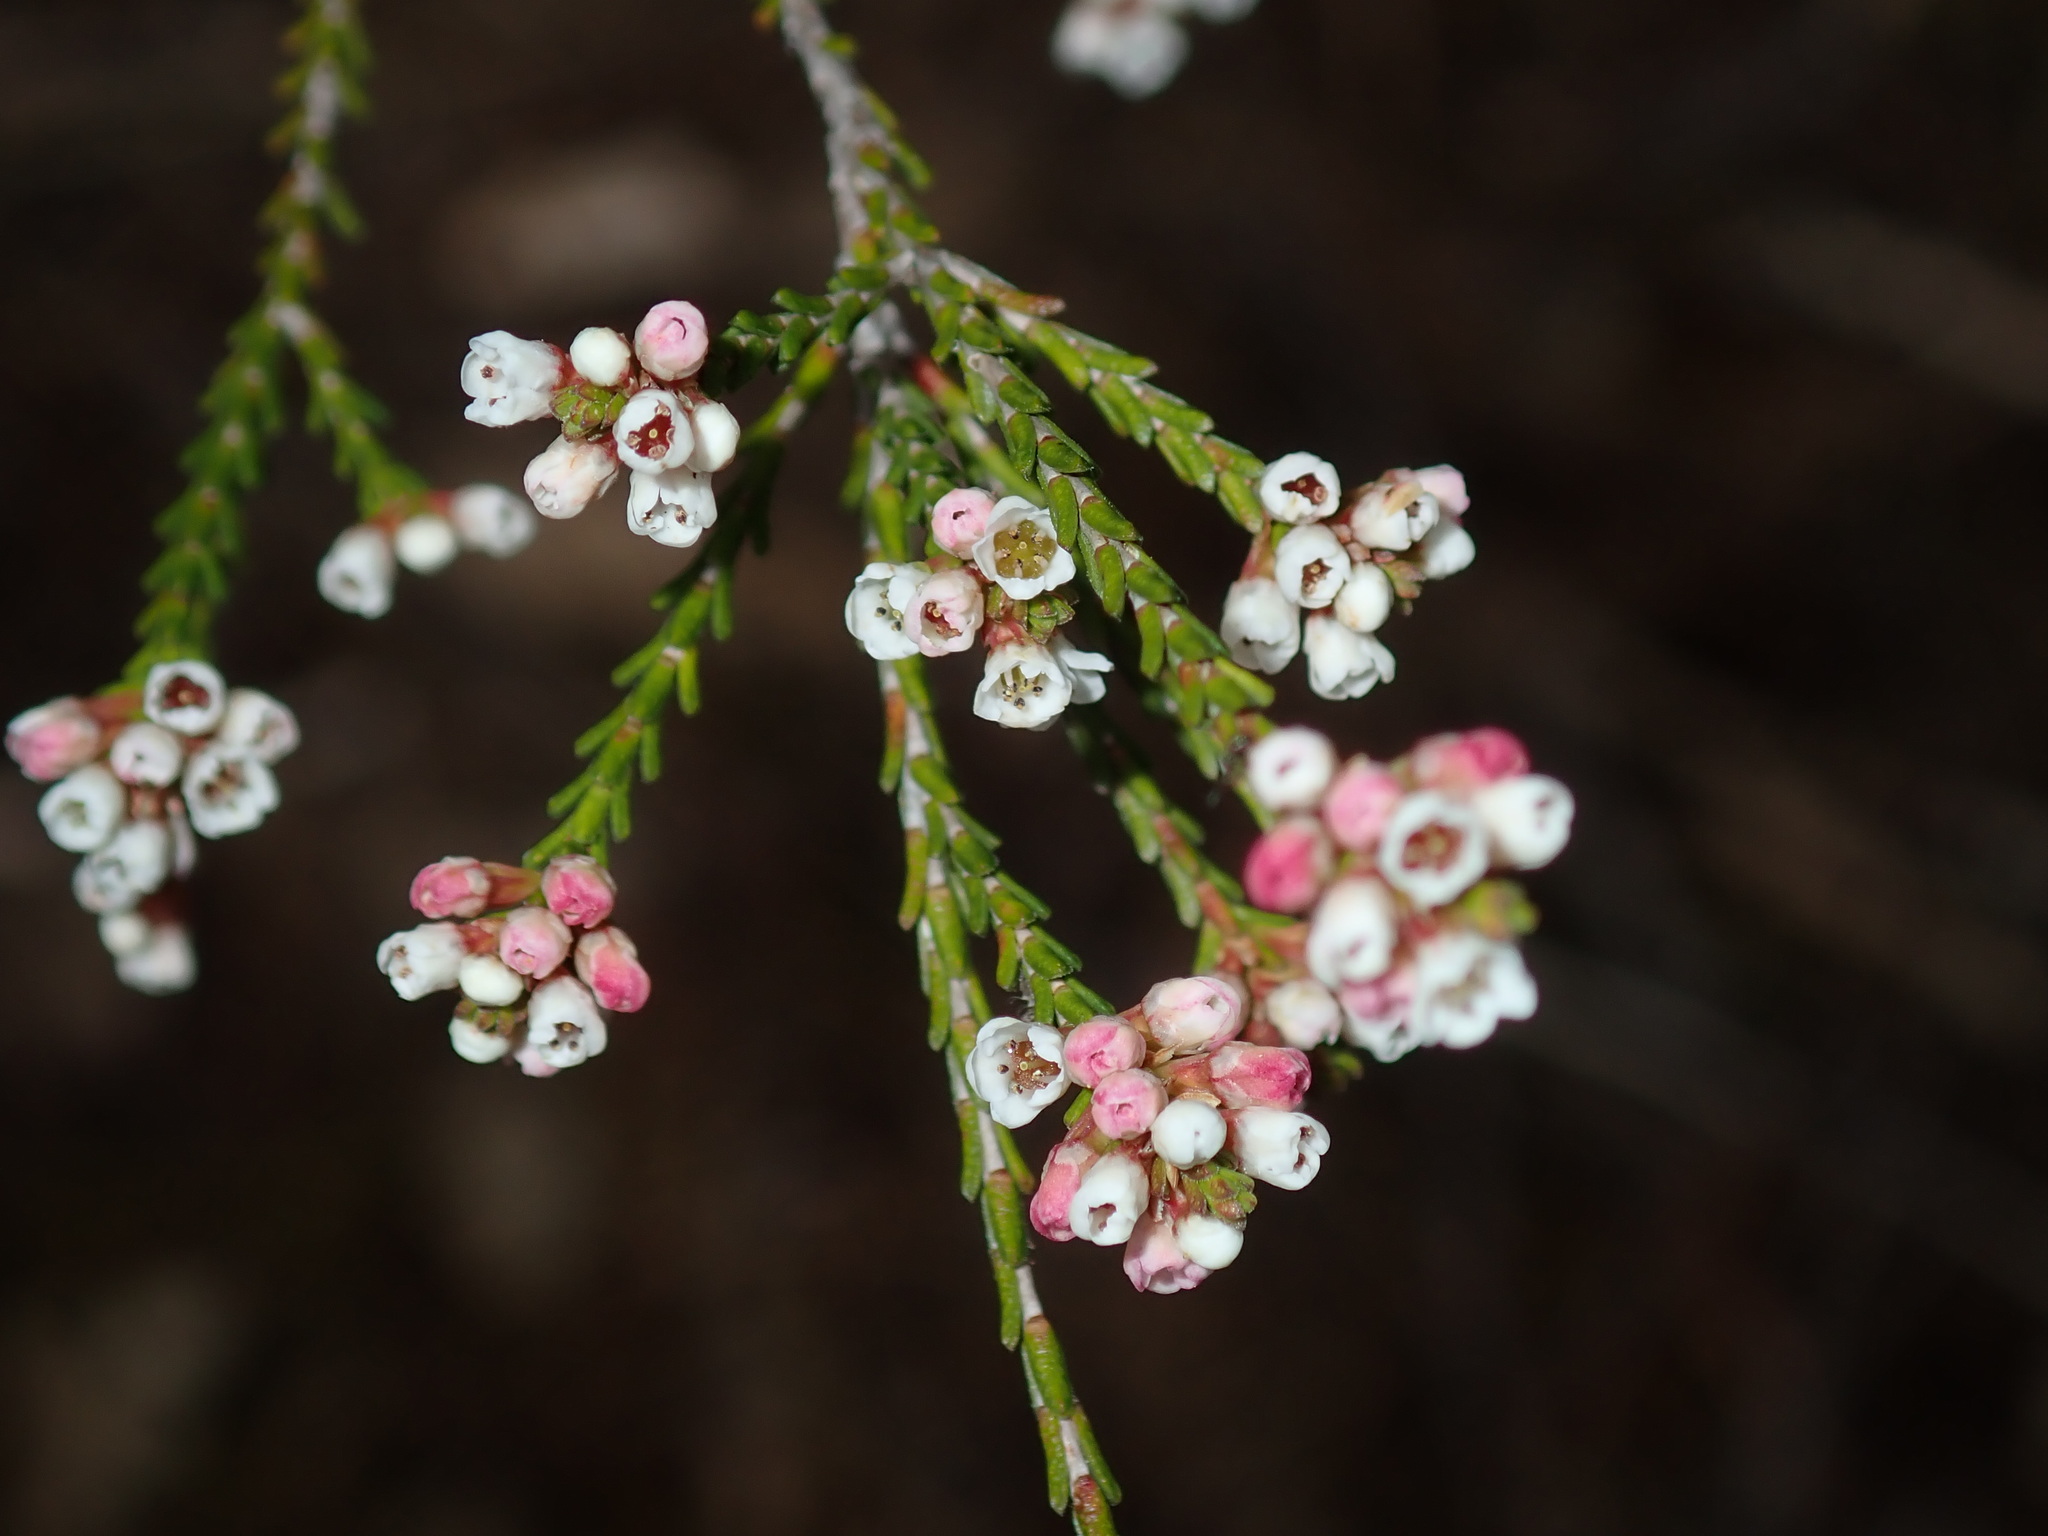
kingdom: Plantae
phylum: Tracheophyta
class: Magnoliopsida
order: Myrtales
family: Myrtaceae
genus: Micromyrtus
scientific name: Micromyrtus ciliata
